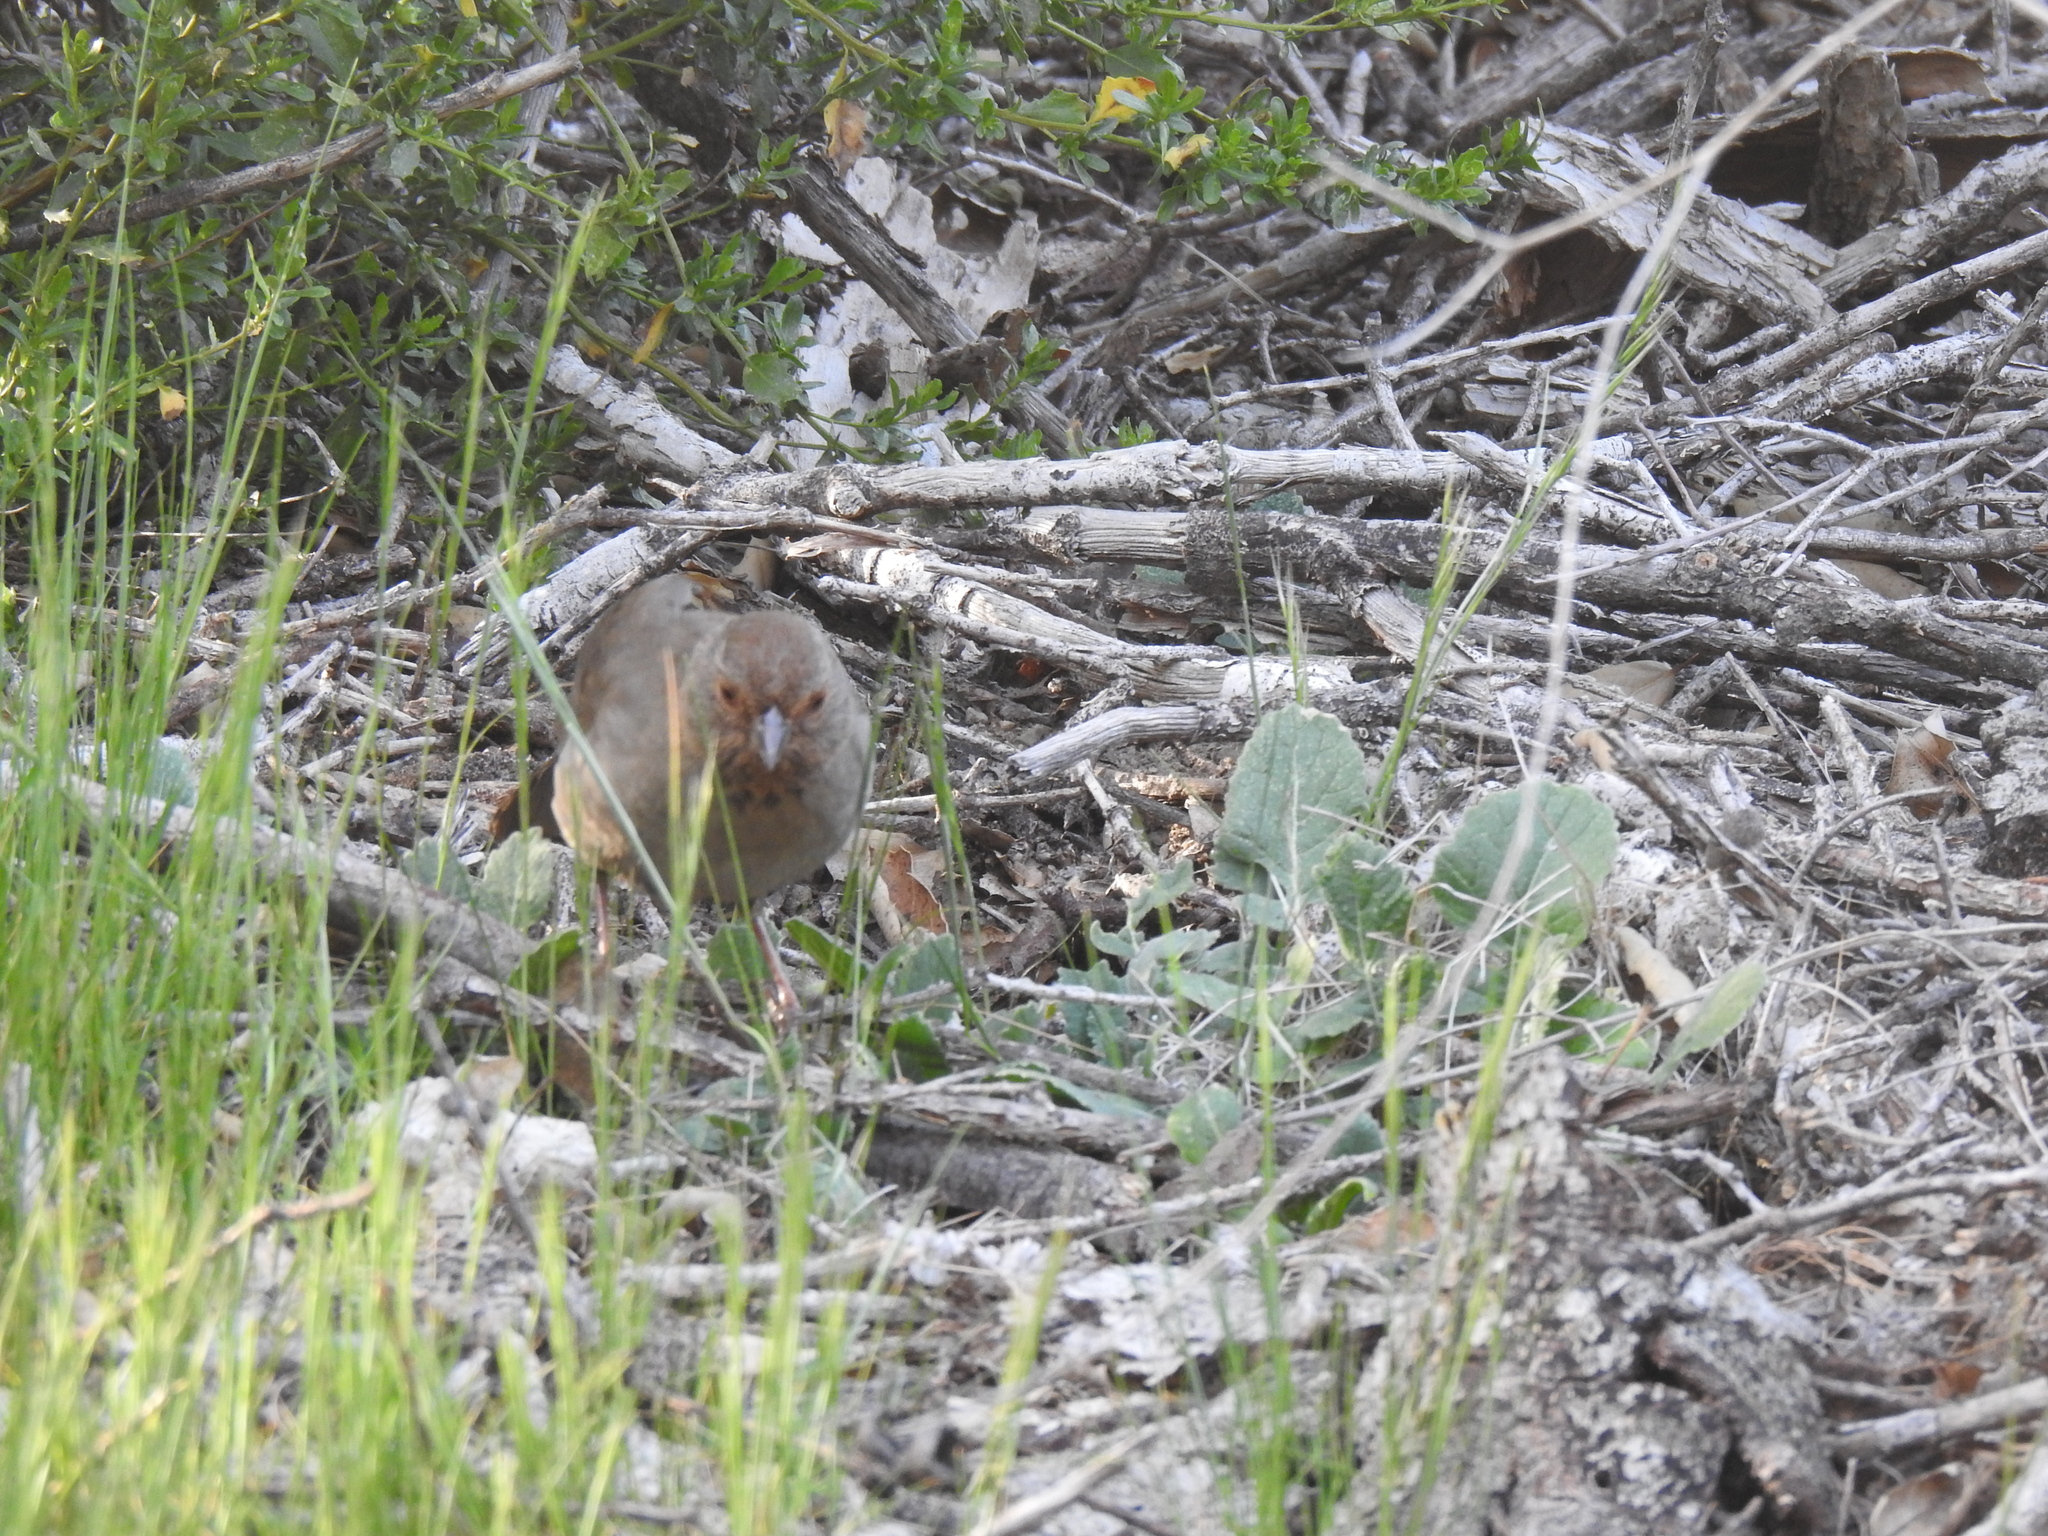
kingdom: Animalia
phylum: Chordata
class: Aves
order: Passeriformes
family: Passerellidae
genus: Melozone
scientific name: Melozone crissalis
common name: California towhee
